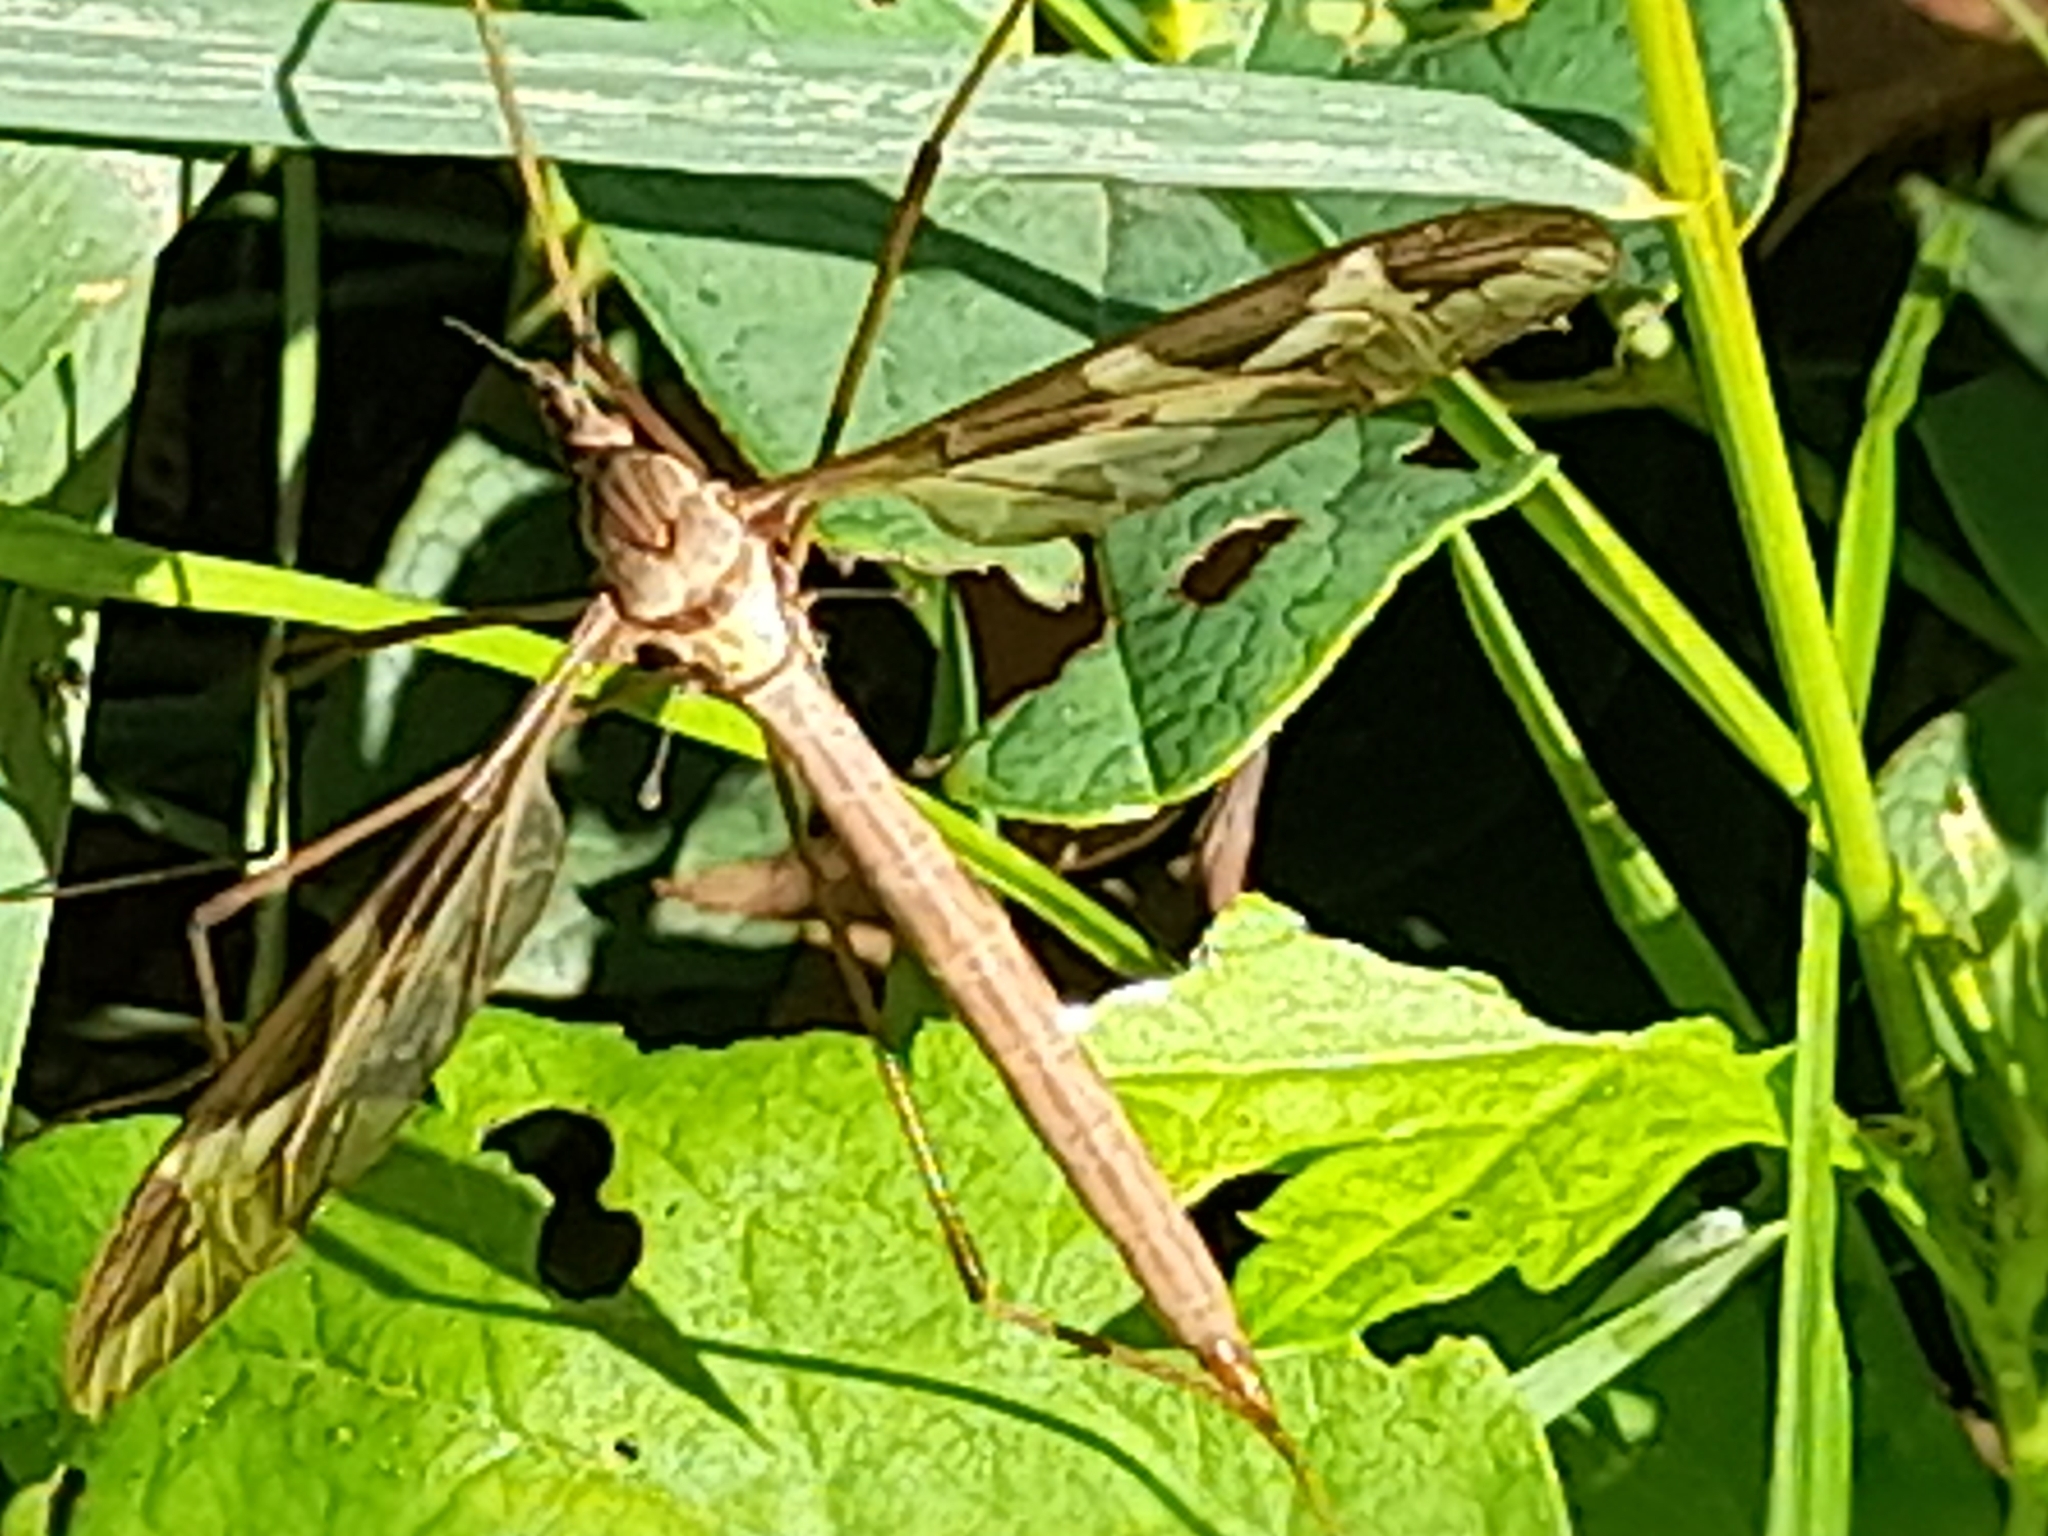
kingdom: Animalia
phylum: Arthropoda
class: Insecta
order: Diptera
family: Tipulidae
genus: Tipula
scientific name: Tipula repanda
